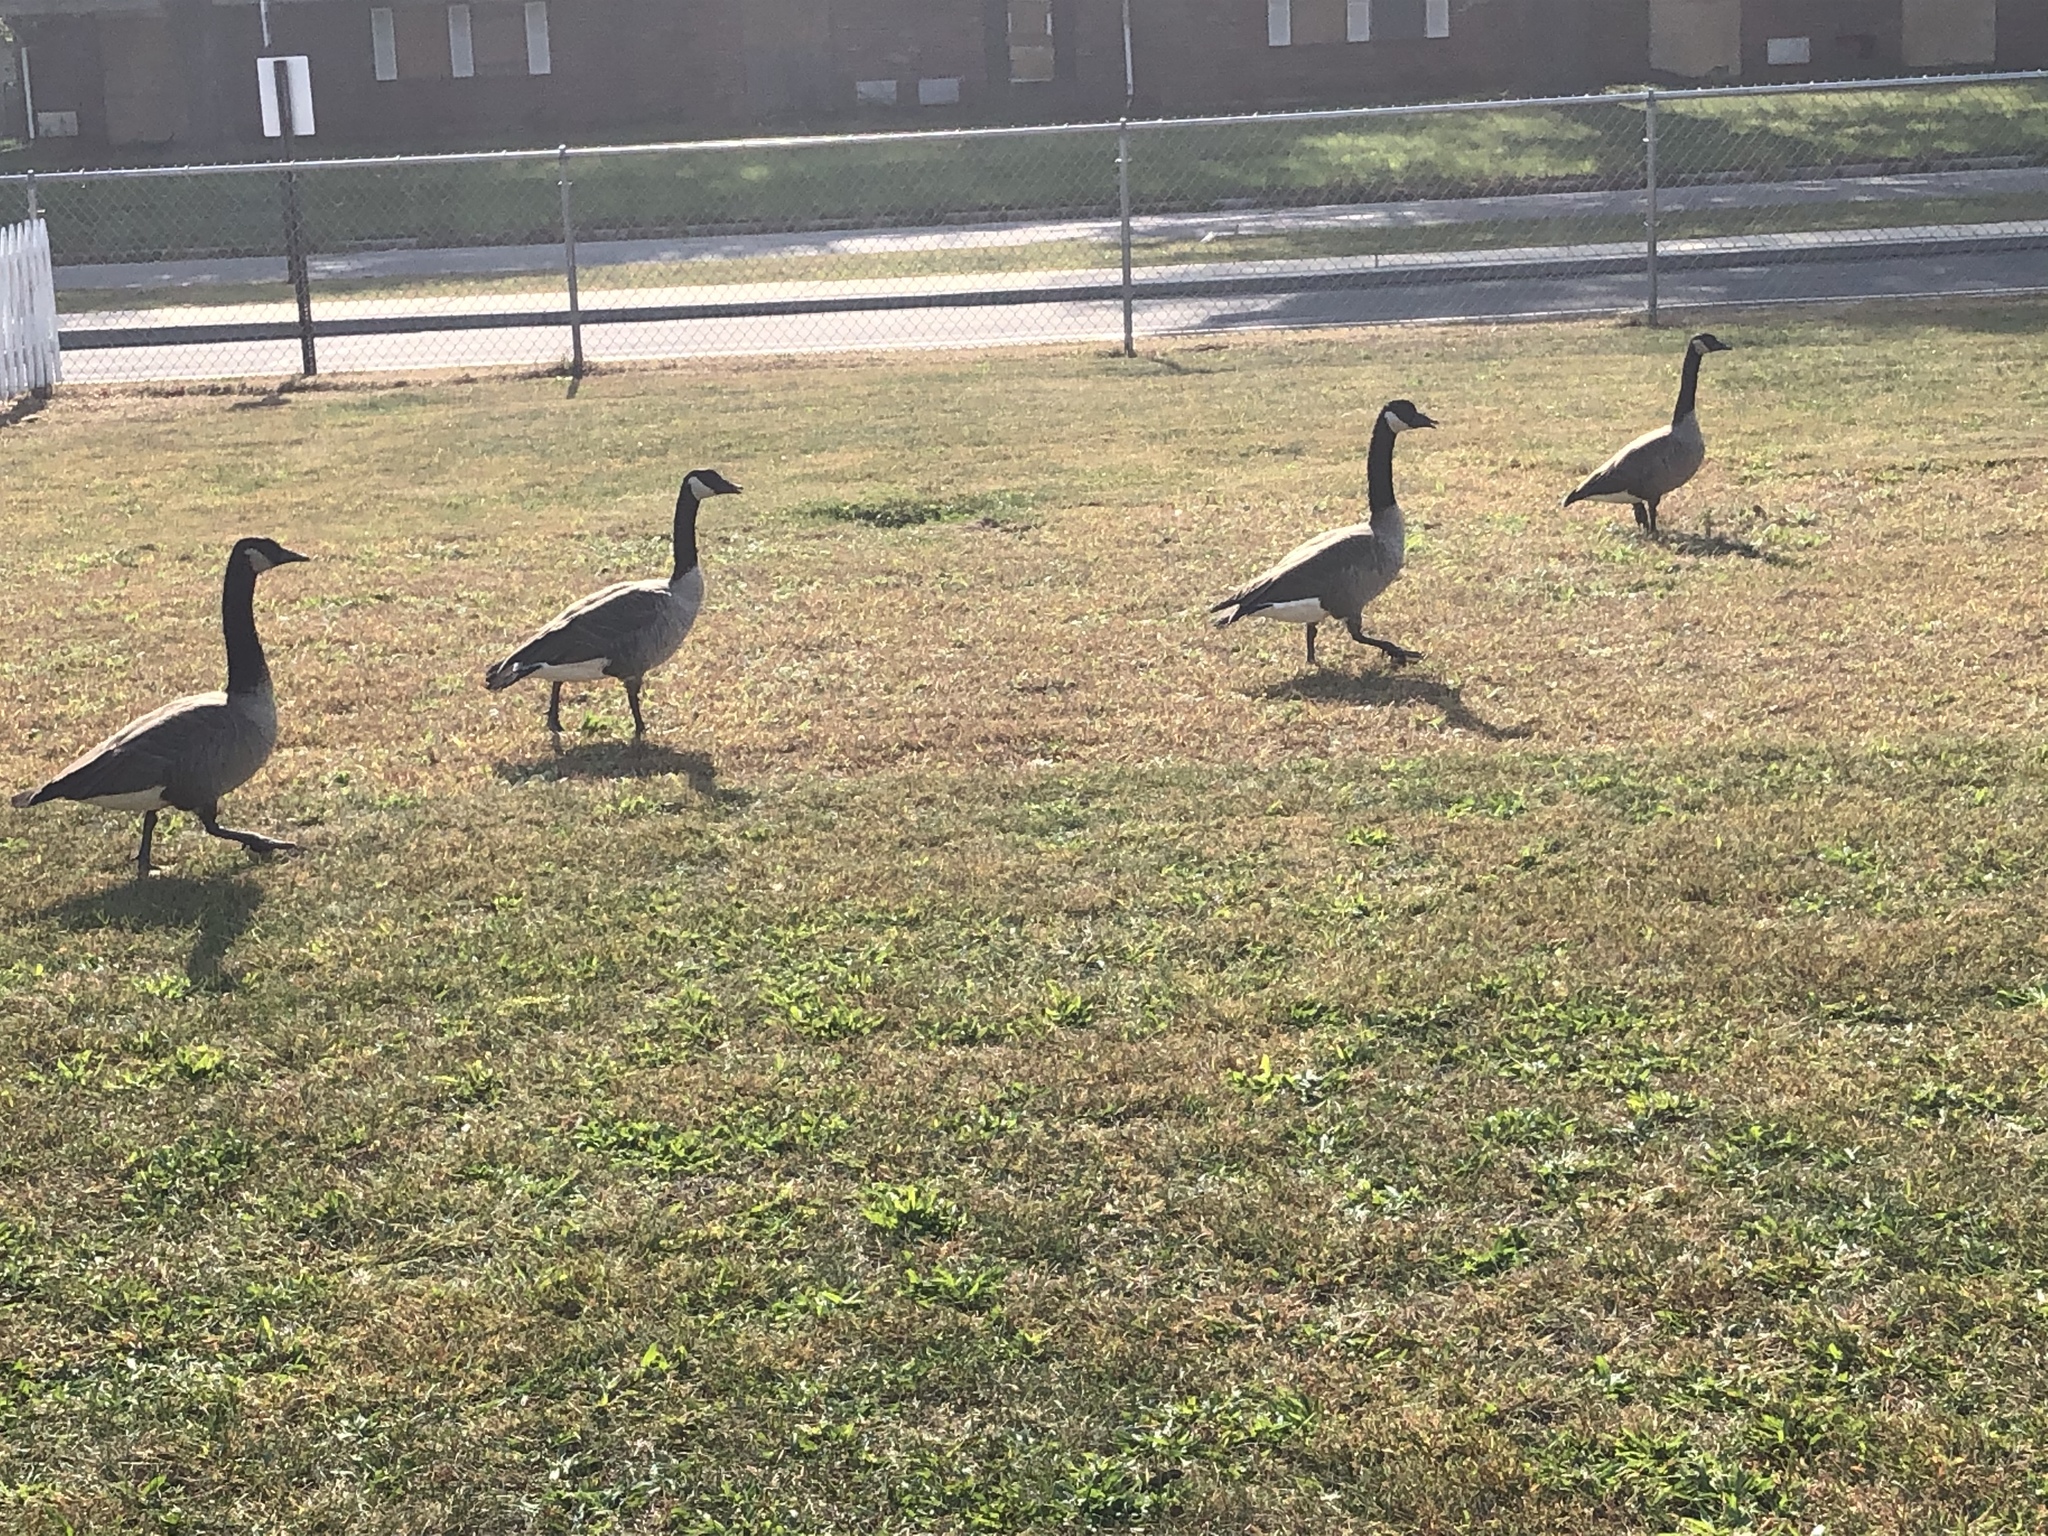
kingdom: Animalia
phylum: Chordata
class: Aves
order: Anseriformes
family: Anatidae
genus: Branta
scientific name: Branta canadensis
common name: Canada goose
